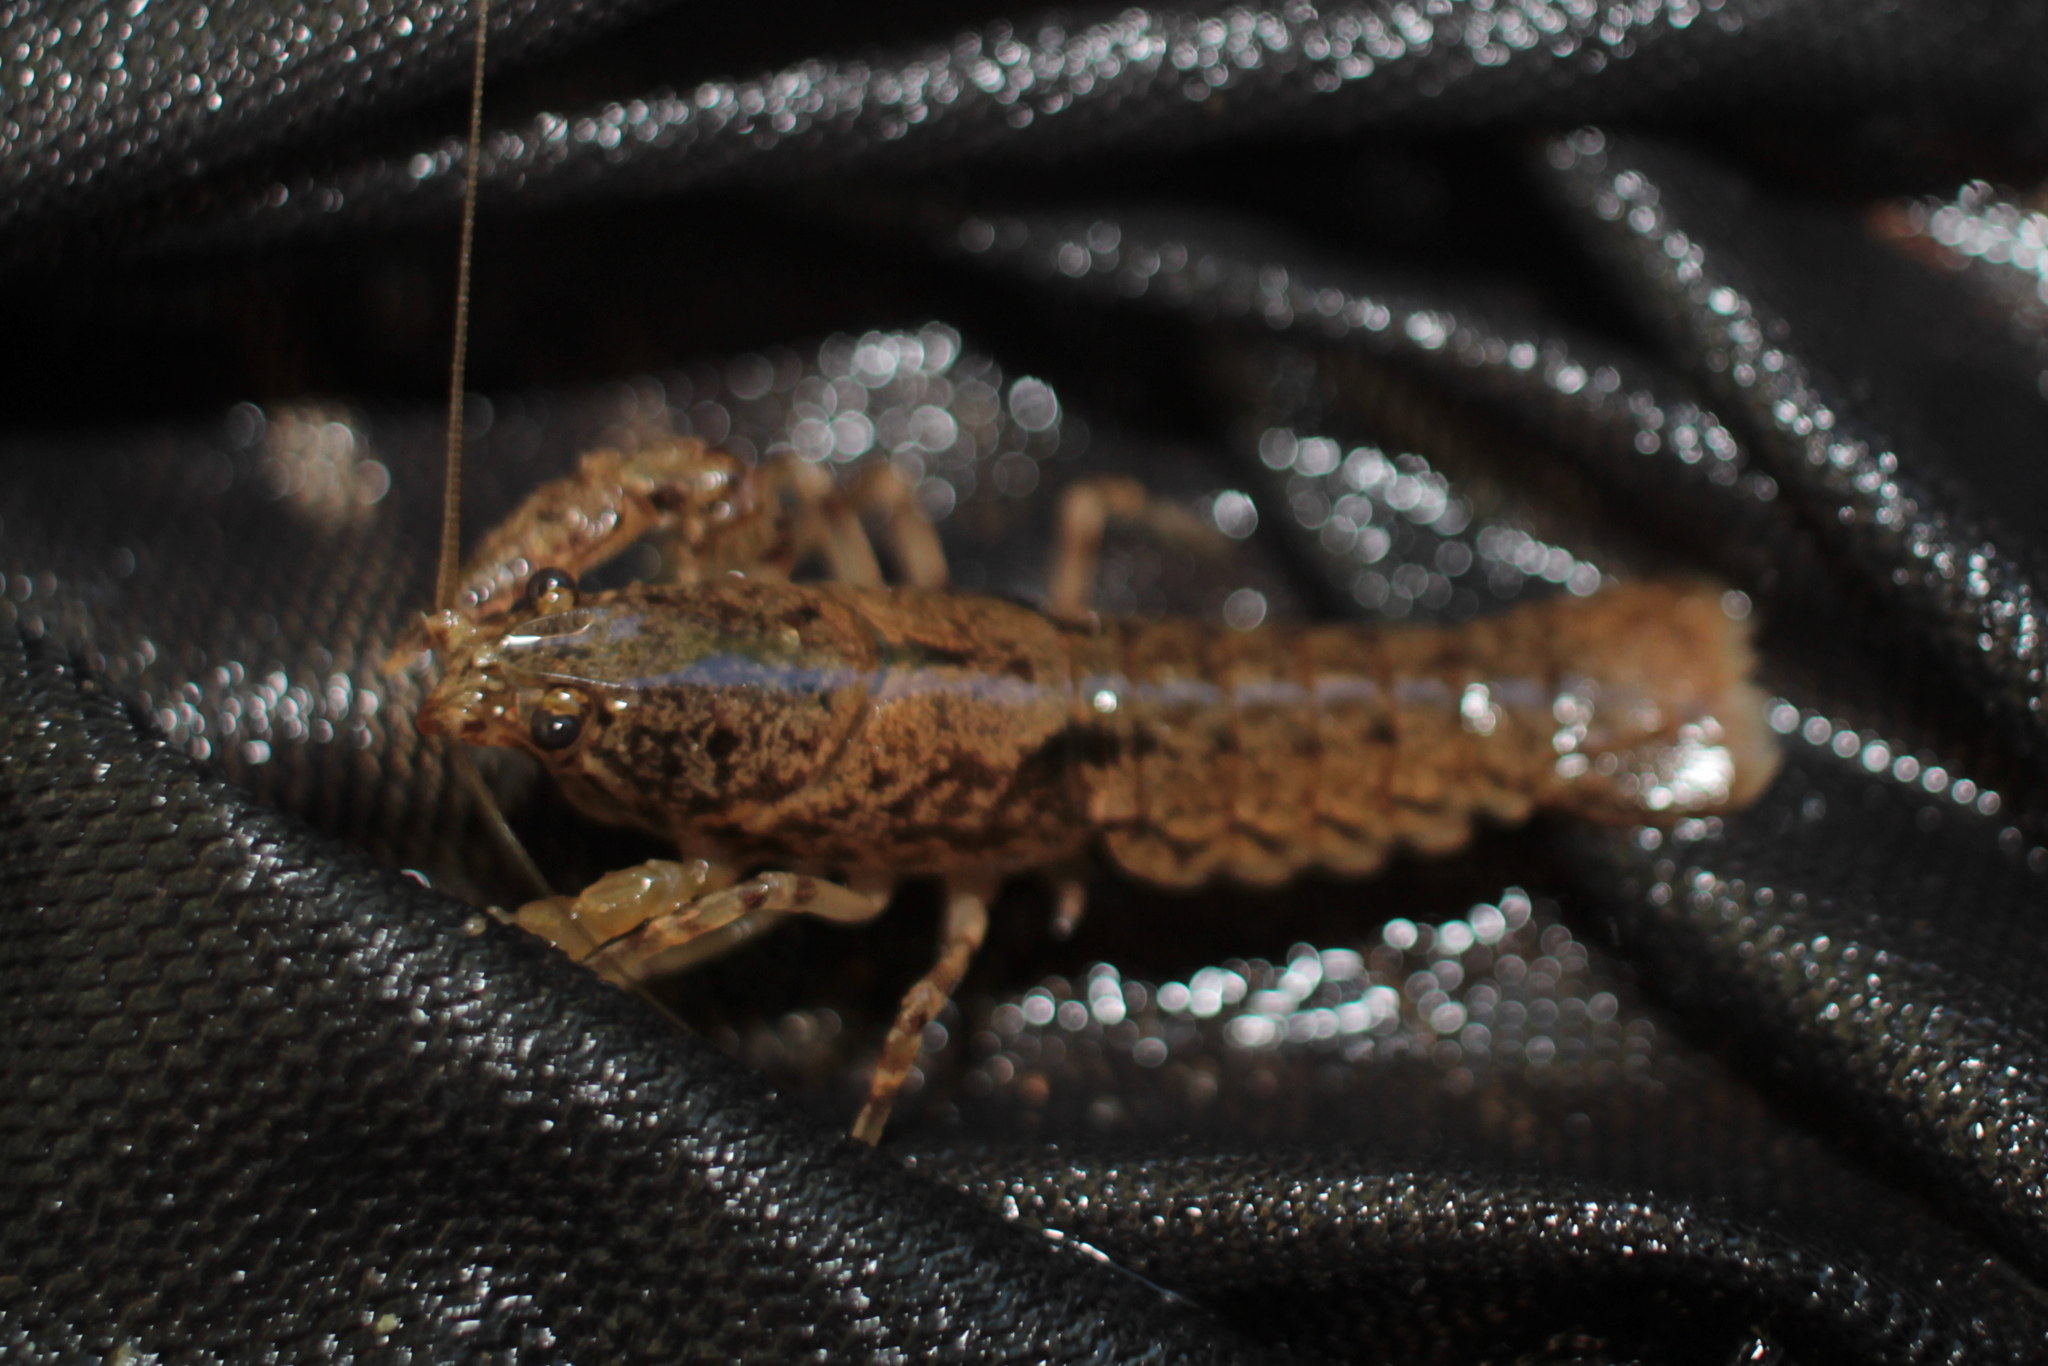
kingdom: Animalia
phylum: Arthropoda
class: Malacostraca
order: Decapoda
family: Cambaridae
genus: Cambarus
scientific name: Cambarus latimanus
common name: Variable crayfish
